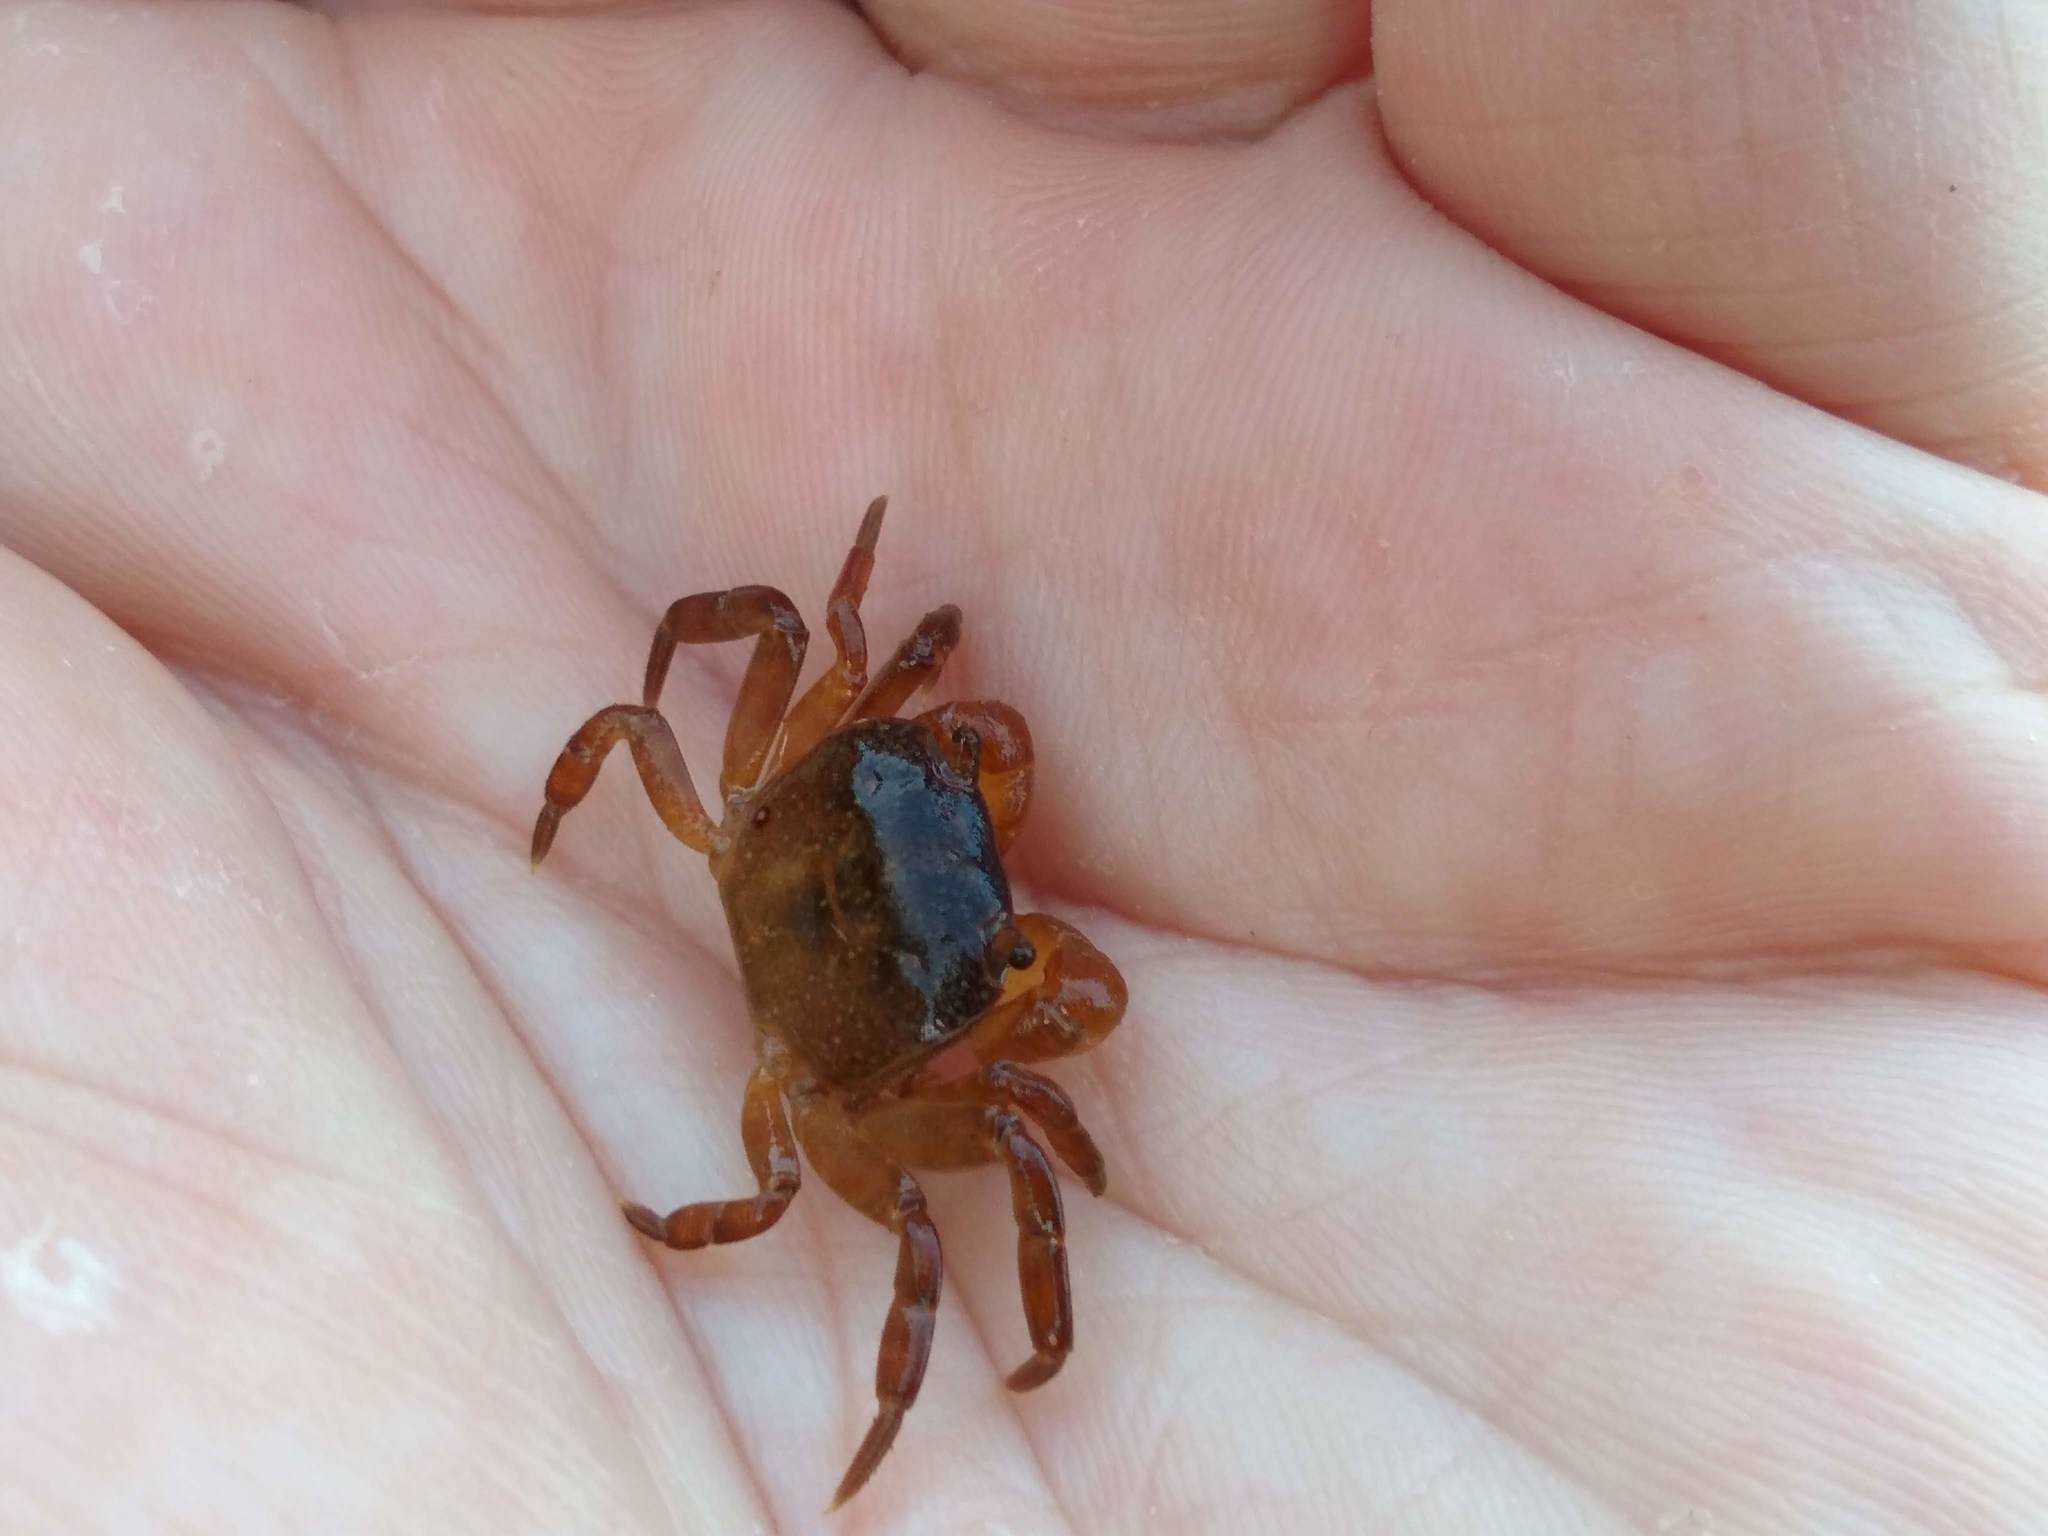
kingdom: Animalia
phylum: Arthropoda
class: Malacostraca
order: Decapoda
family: Varunidae
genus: Cyclograpsus
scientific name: Cyclograpsus lavauxi
